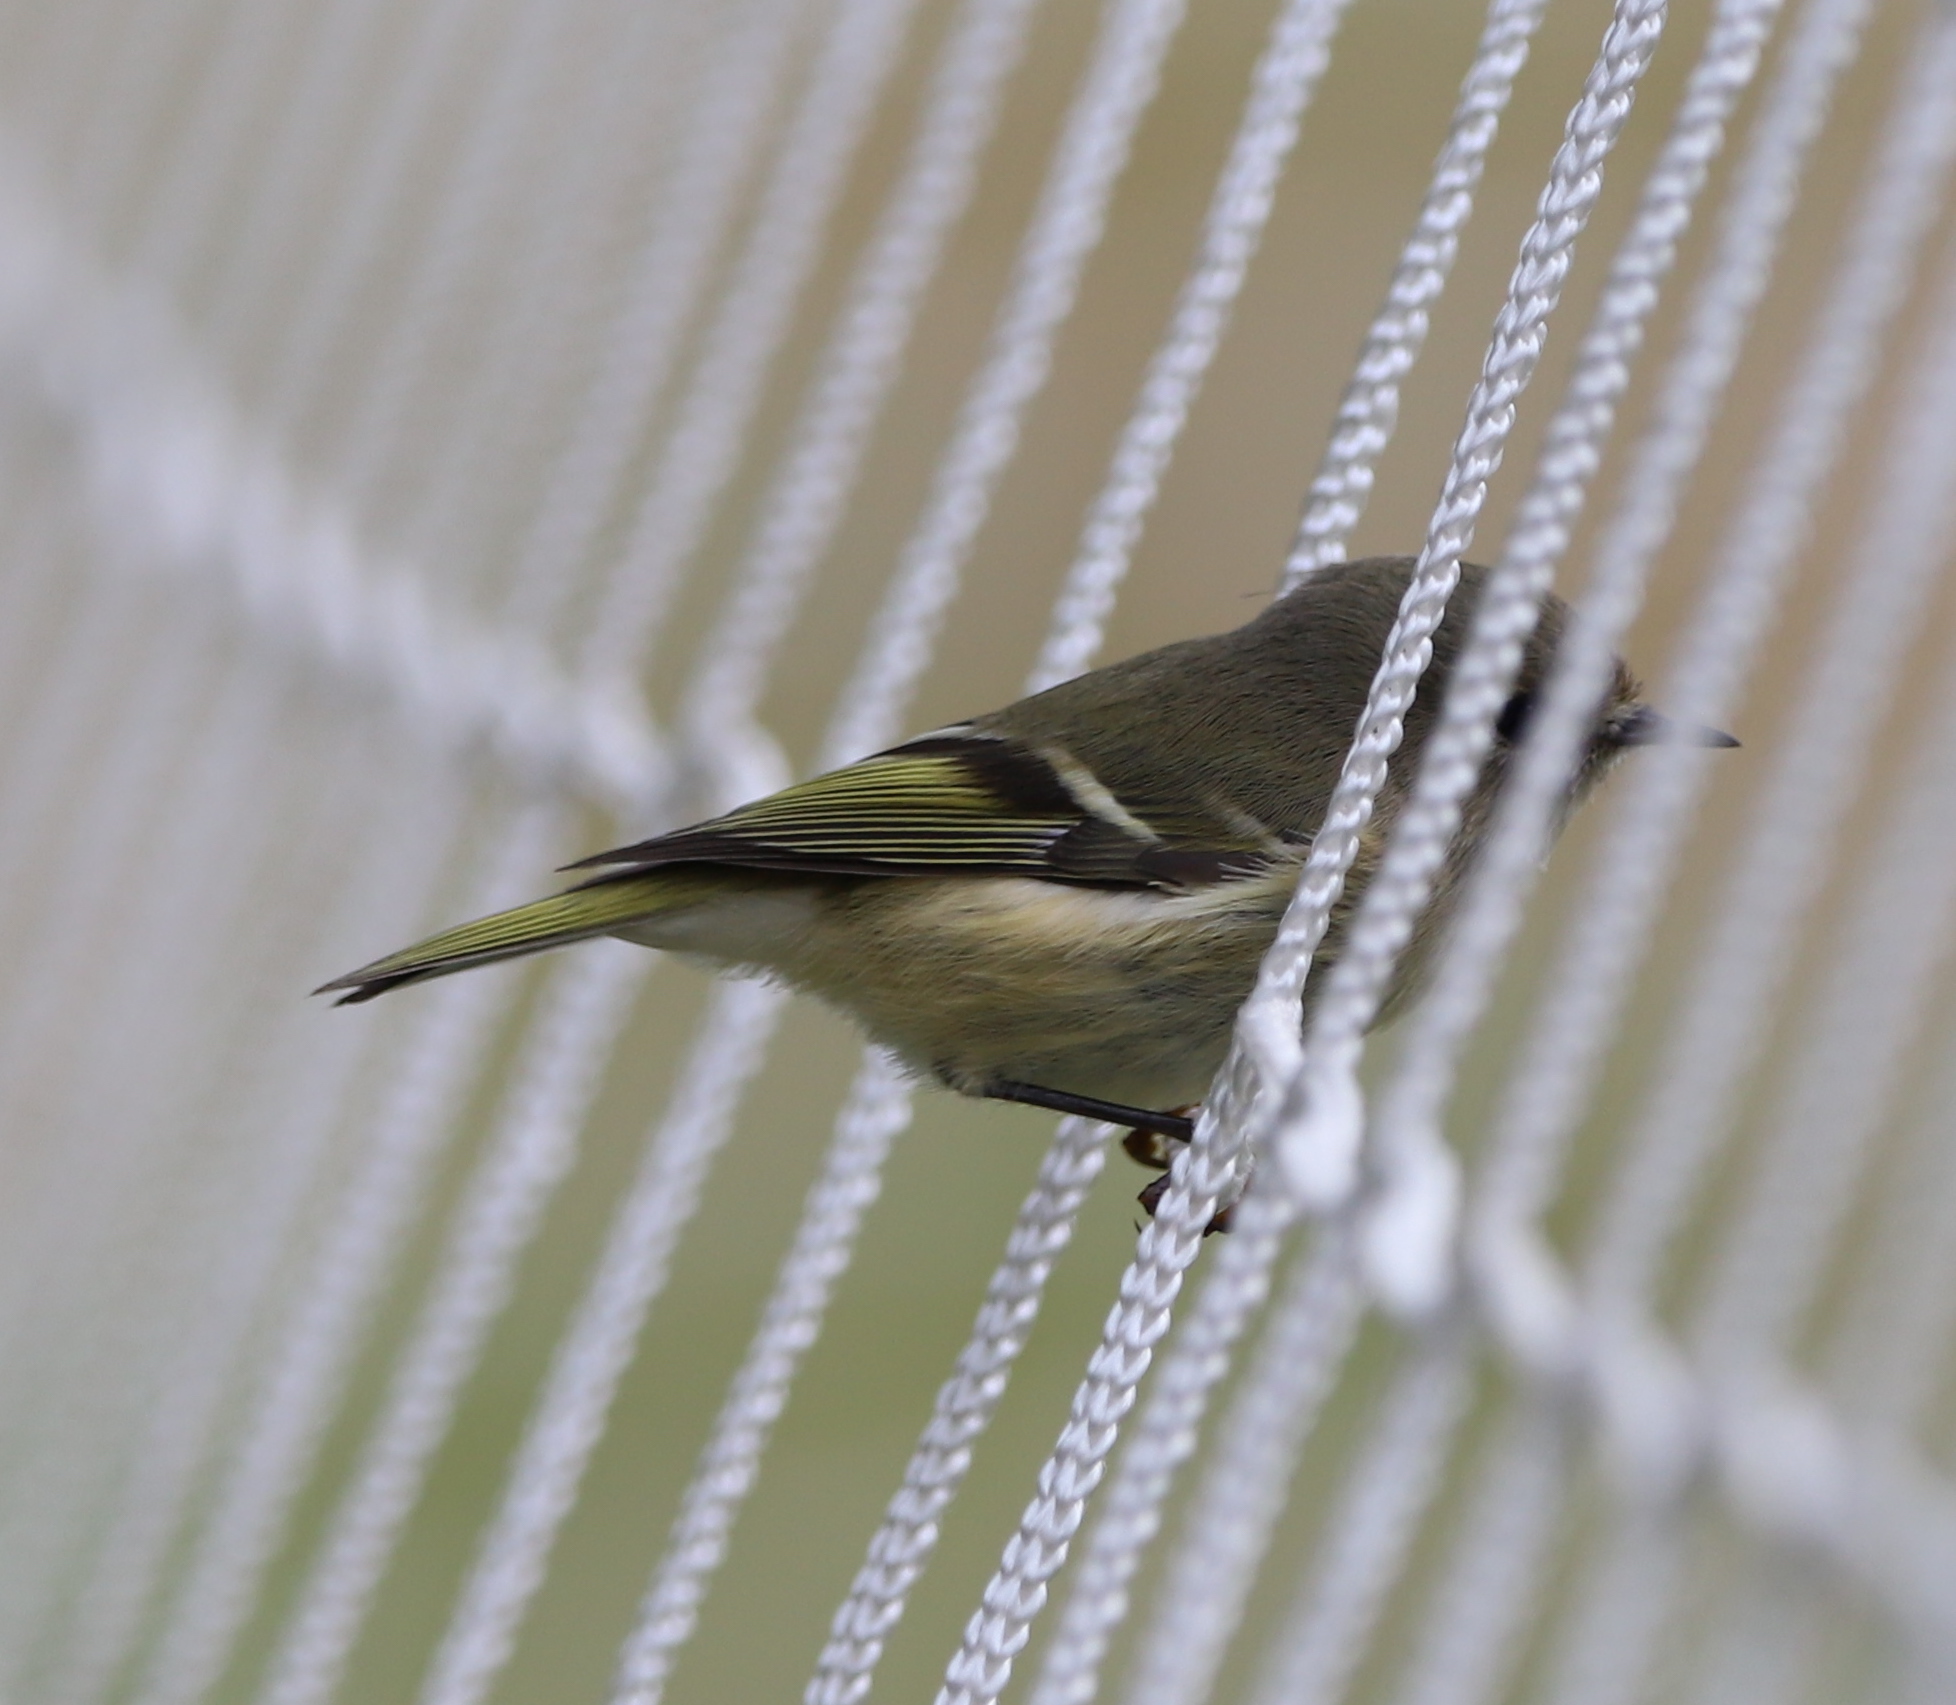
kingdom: Animalia
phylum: Chordata
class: Aves
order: Passeriformes
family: Regulidae
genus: Regulus
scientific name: Regulus calendula
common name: Ruby-crowned kinglet
